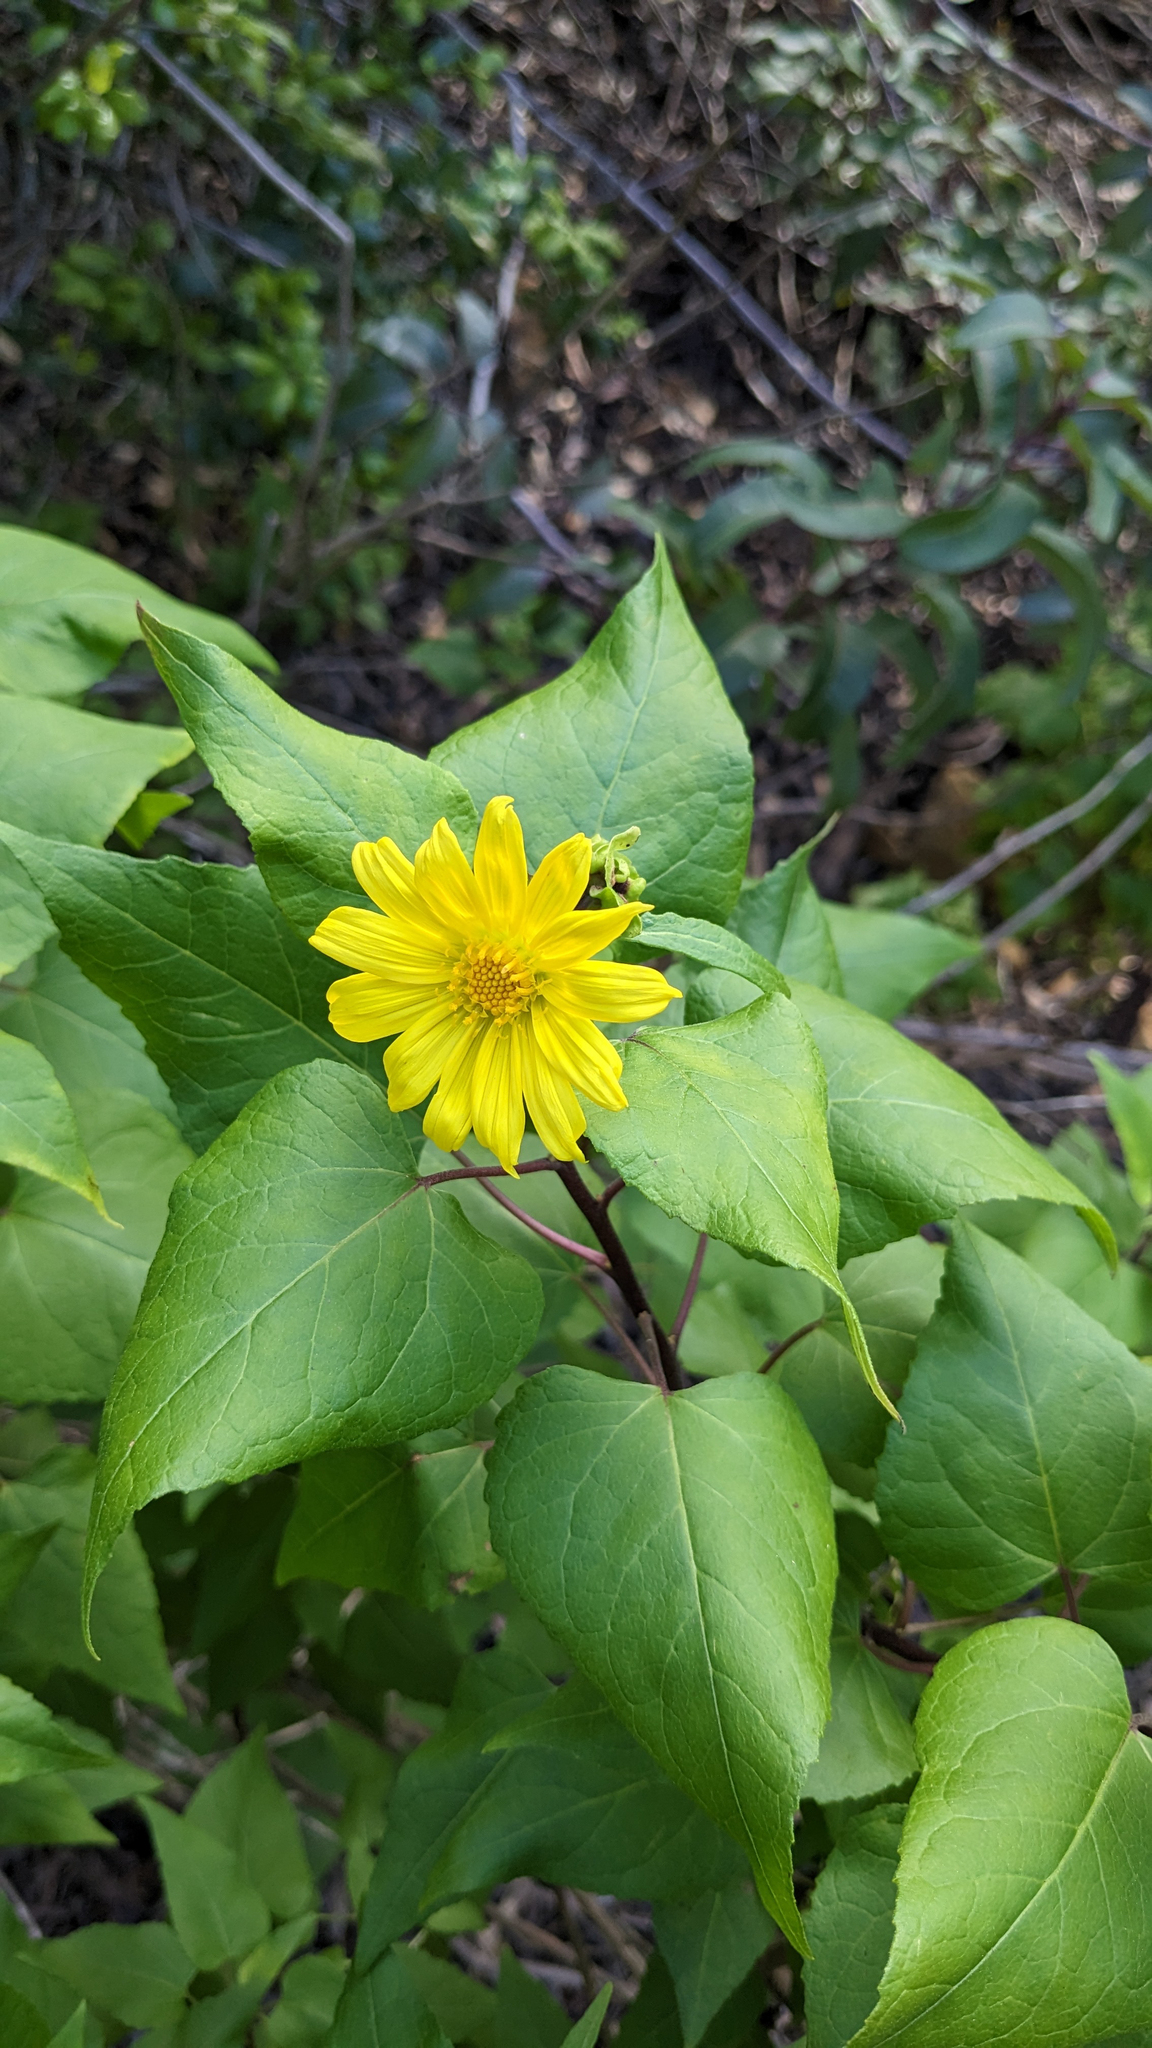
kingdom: Plantae
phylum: Tracheophyta
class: Magnoliopsida
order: Asterales
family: Asteraceae
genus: Venegasia
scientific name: Venegasia carpesioides
